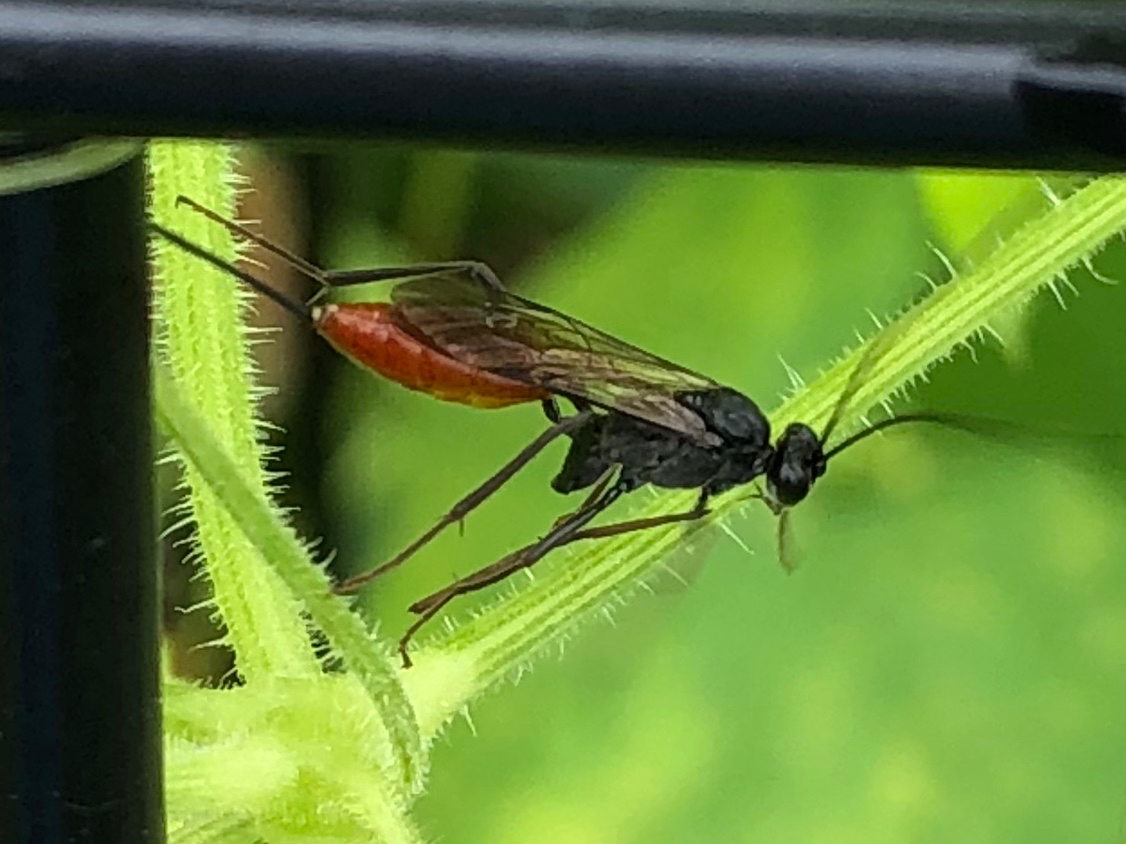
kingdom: Animalia
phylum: Arthropoda
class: Insecta
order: Hymenoptera
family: Ichneumonidae
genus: Cryptus
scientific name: Cryptus albitarsis
